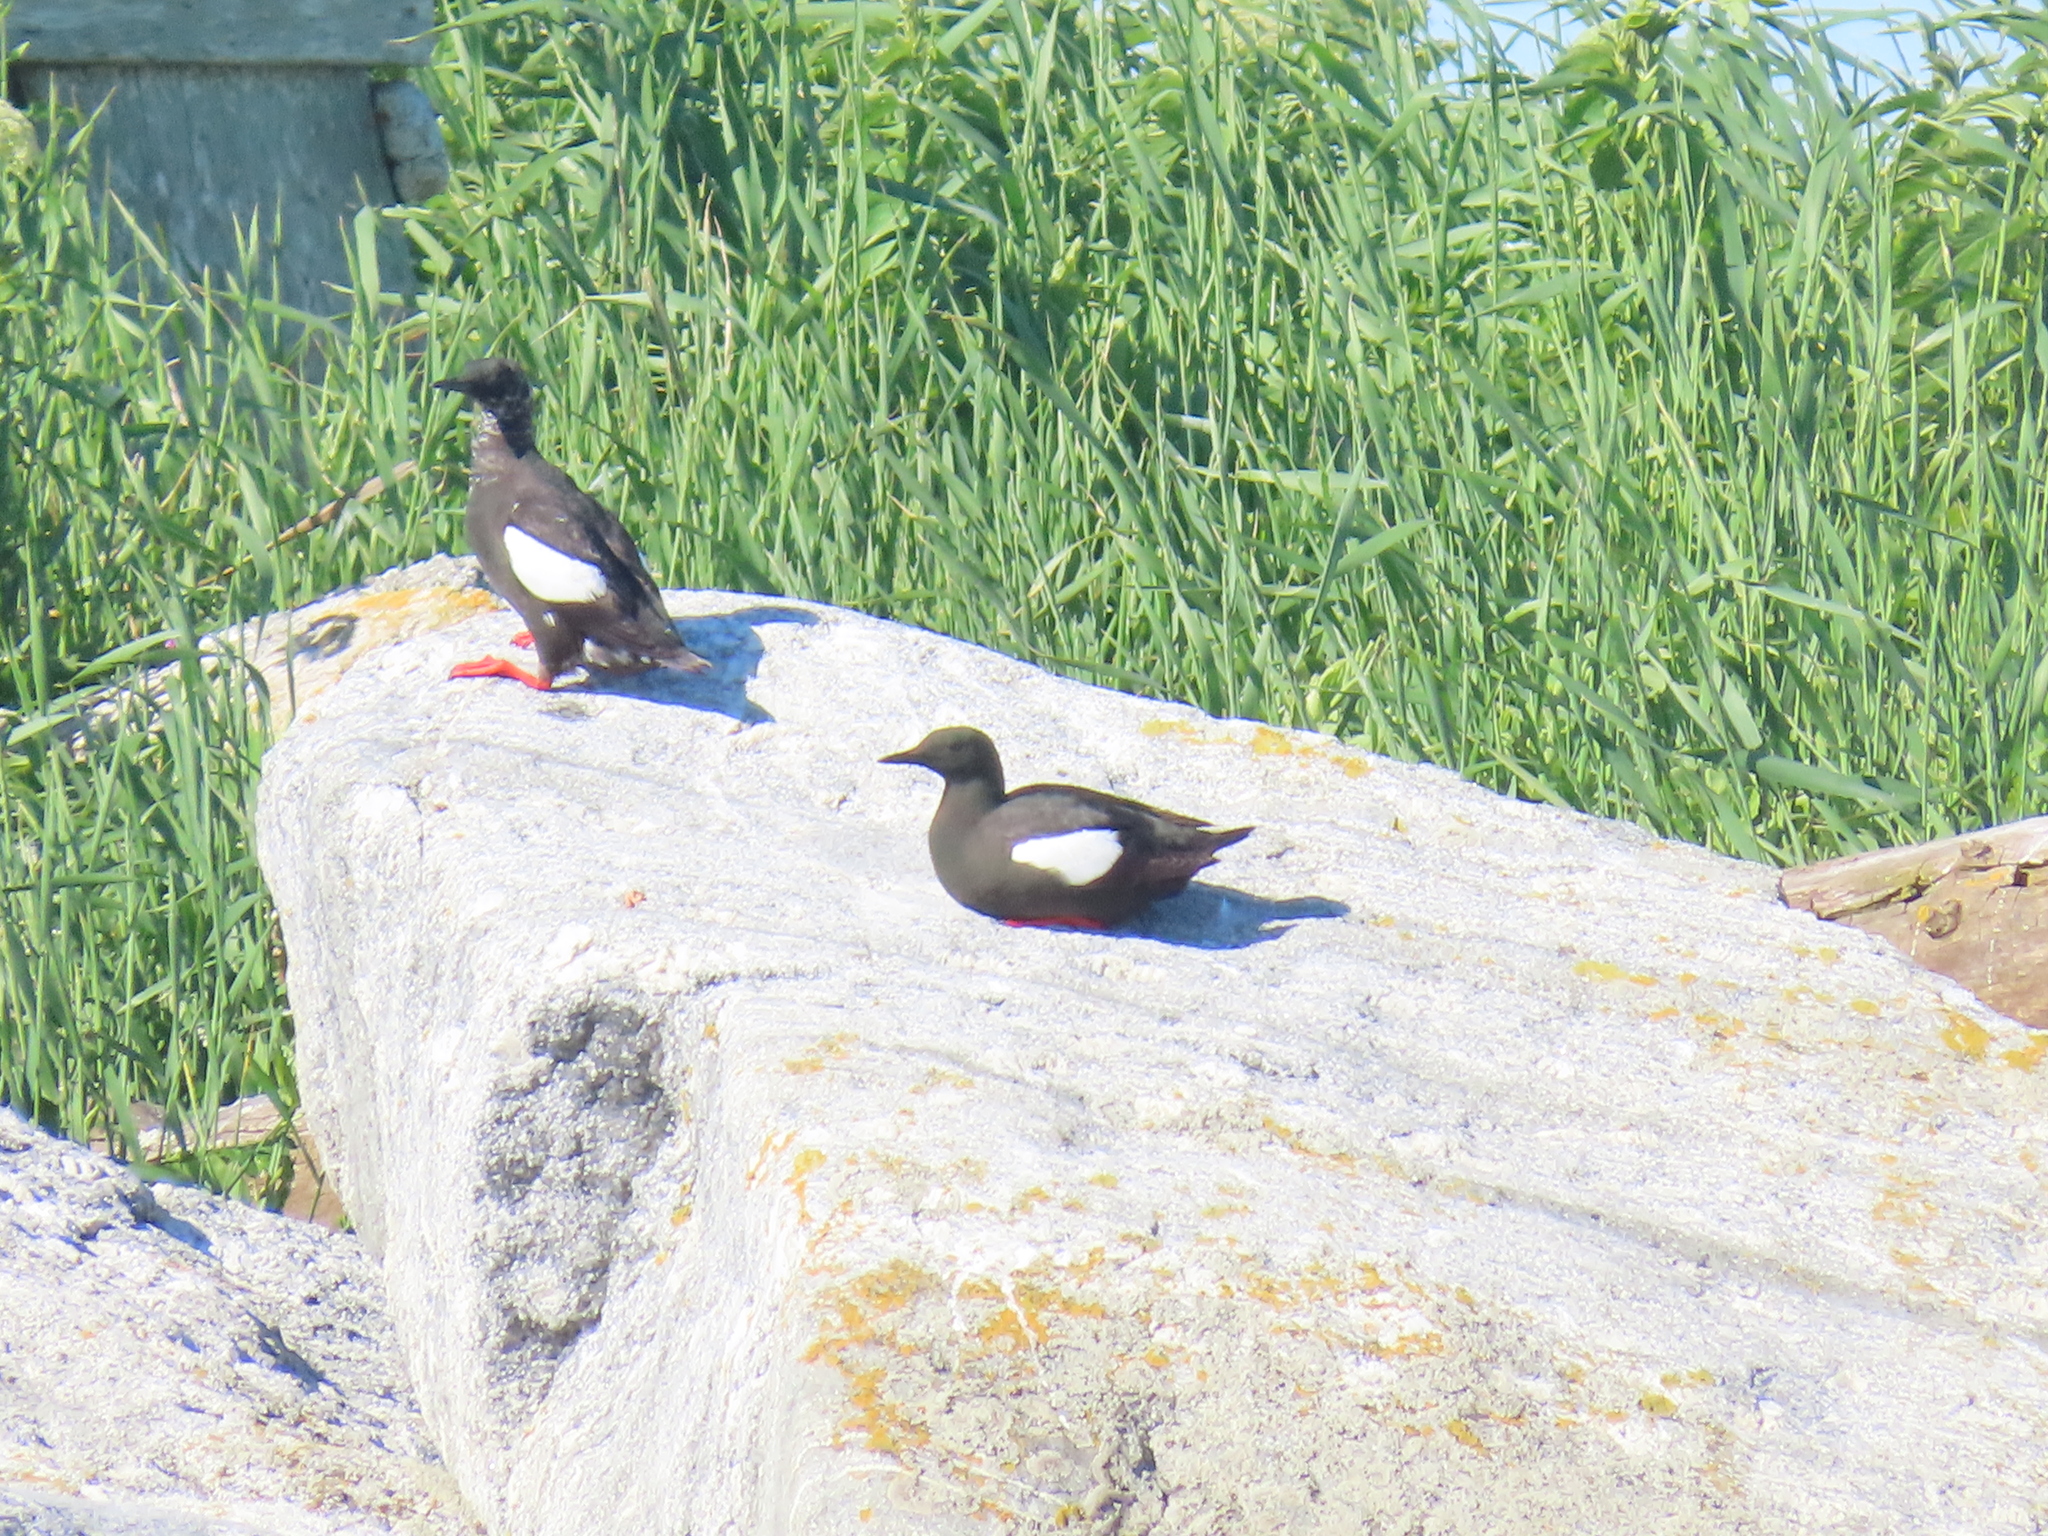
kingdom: Animalia
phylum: Chordata
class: Aves
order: Charadriiformes
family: Alcidae
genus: Cepphus
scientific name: Cepphus grylle
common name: Black guillemot
